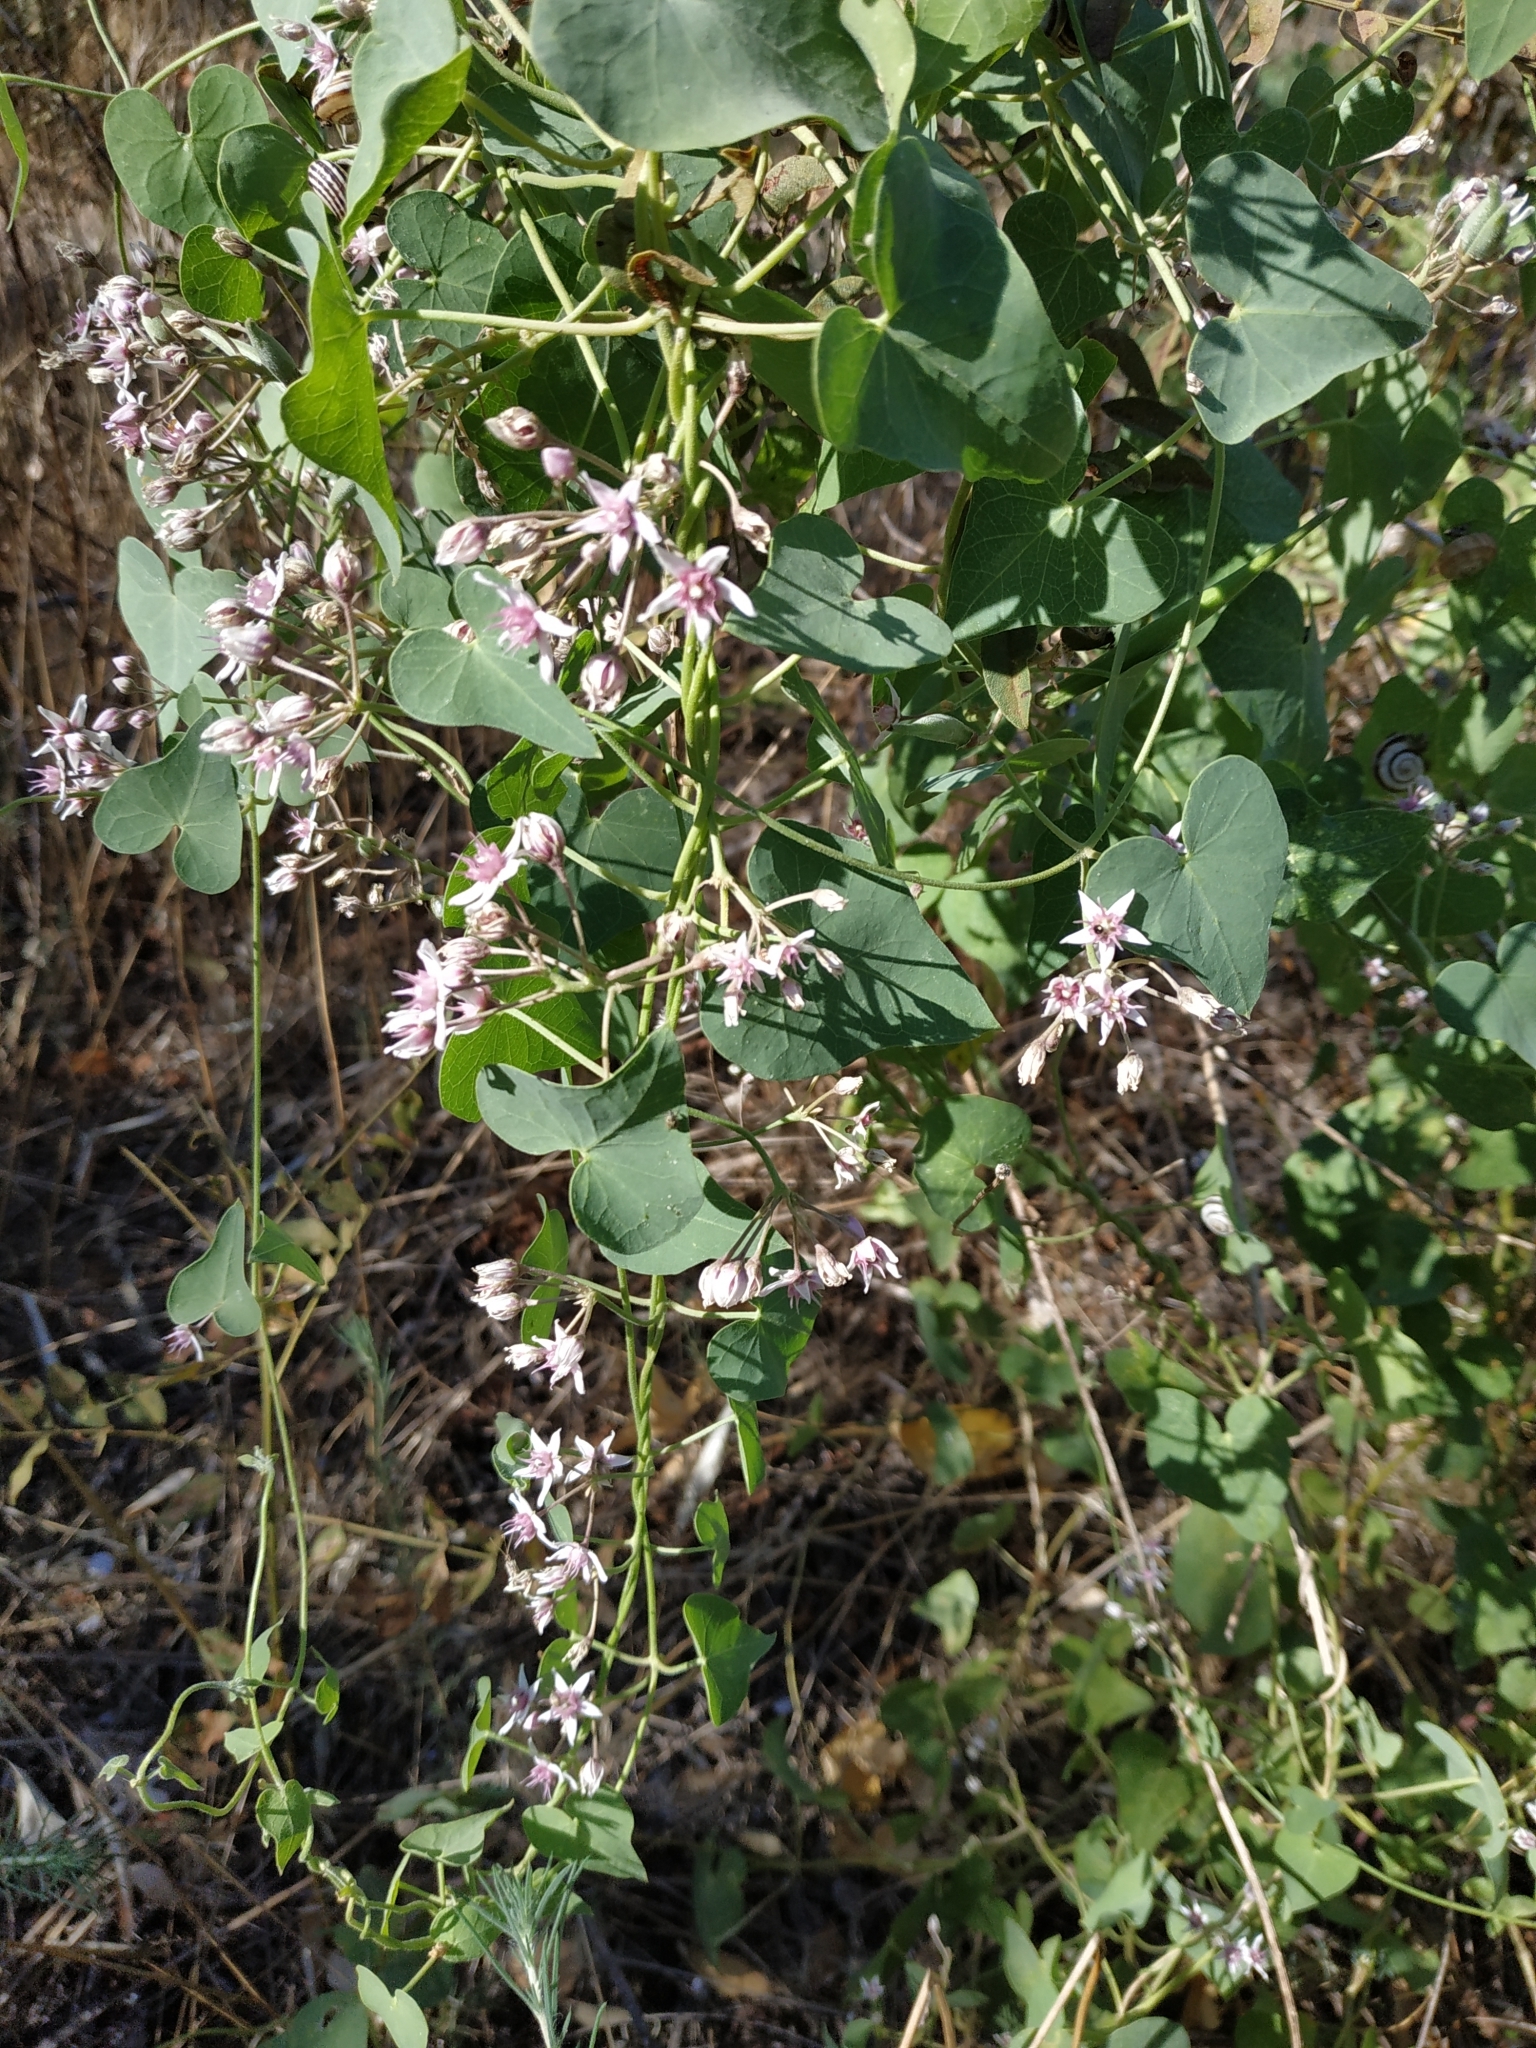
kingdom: Plantae
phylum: Tracheophyta
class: Magnoliopsida
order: Gentianales
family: Apocynaceae
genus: Cynanchum
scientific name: Cynanchum acutum
